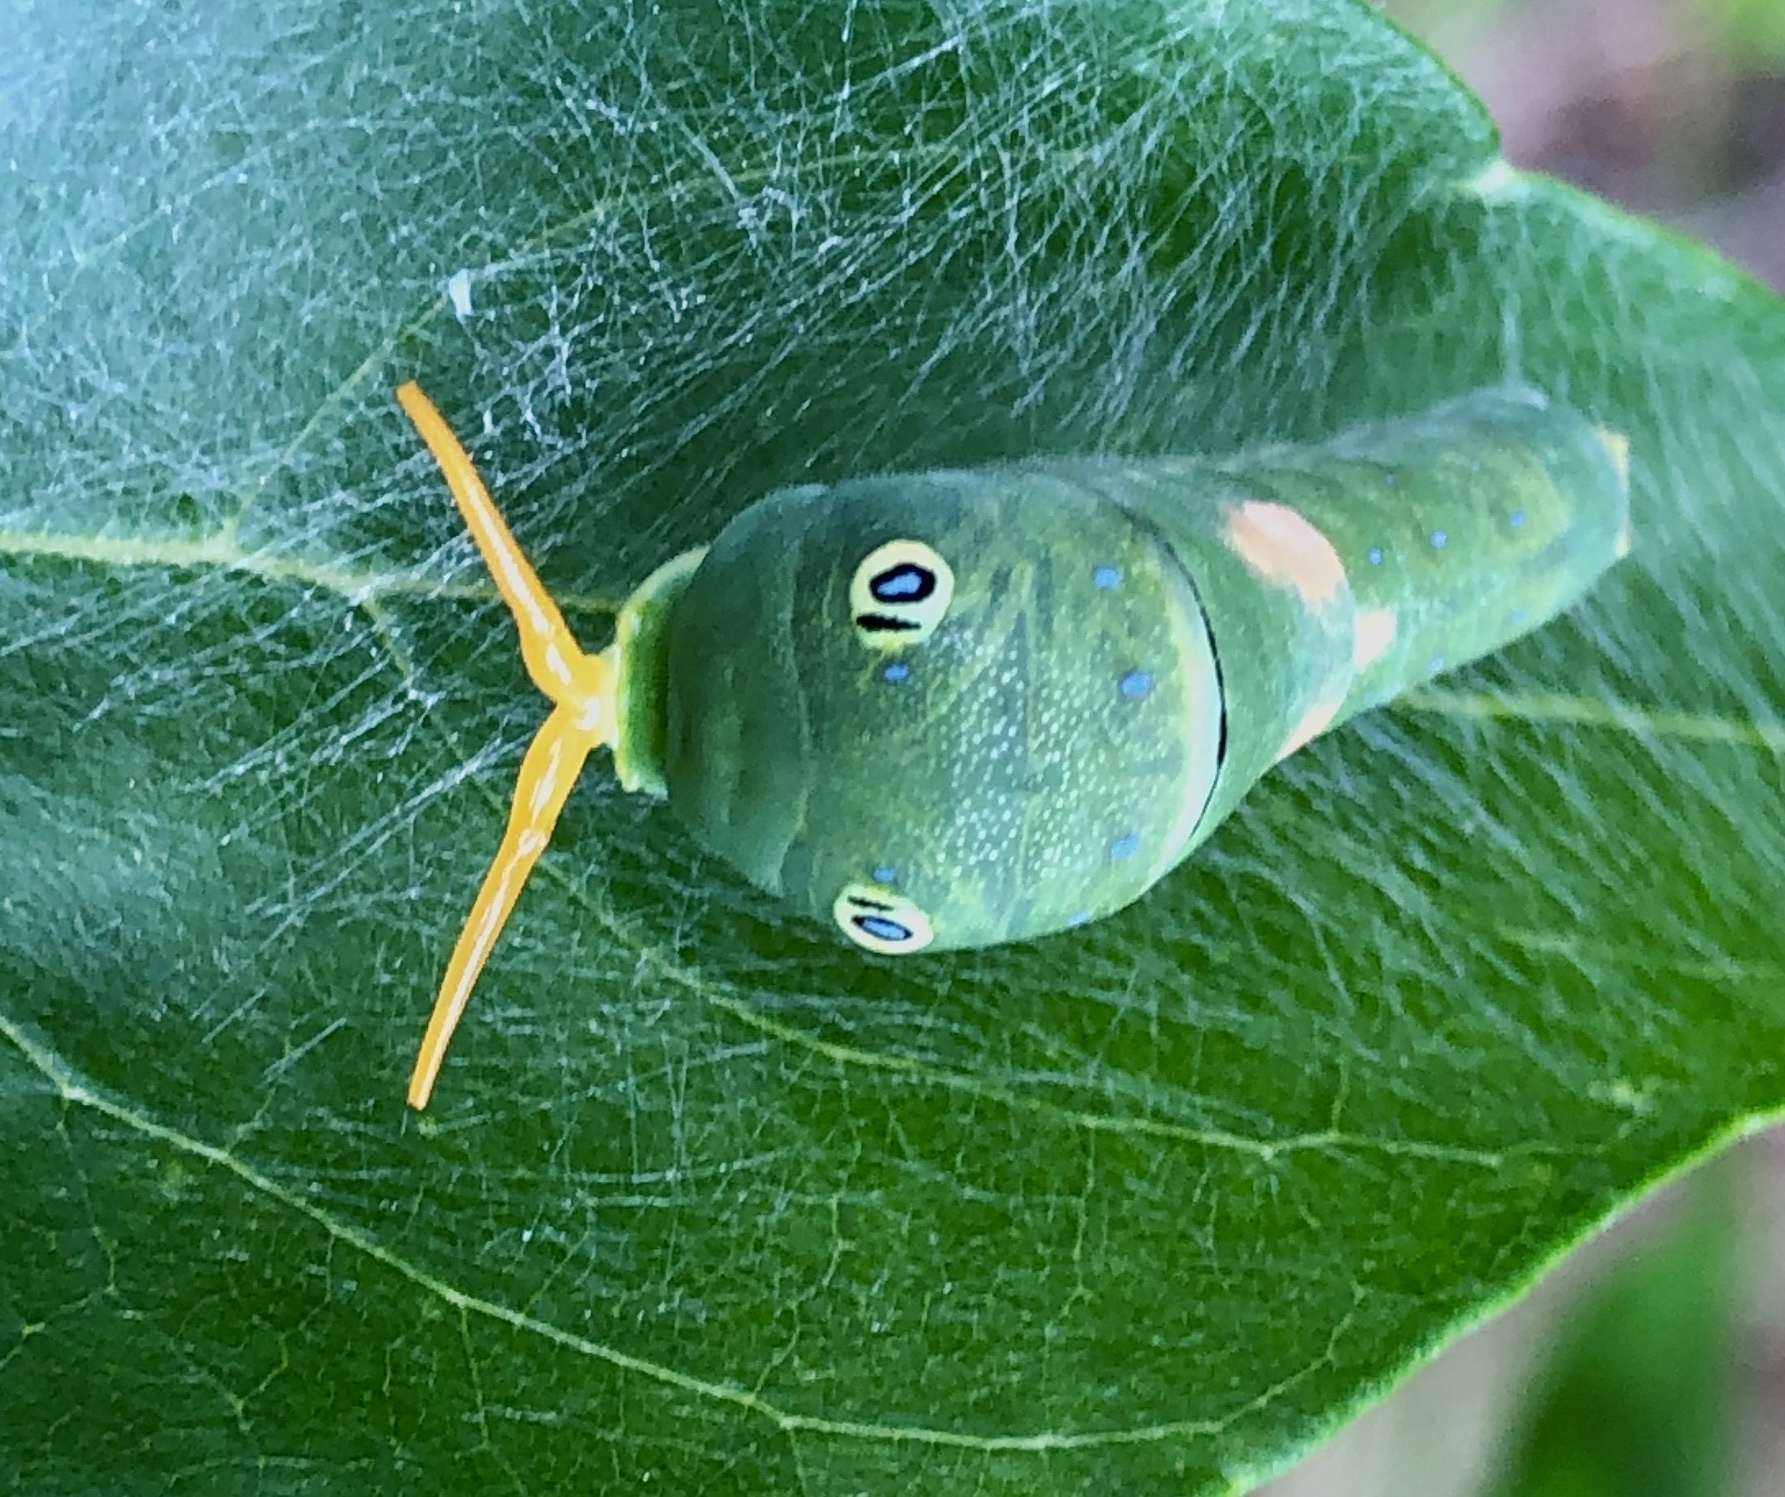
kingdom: Animalia
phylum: Arthropoda
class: Insecta
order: Lepidoptera
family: Papilionidae
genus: Papilio
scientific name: Papilio glaucus
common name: Tiger swallowtail
